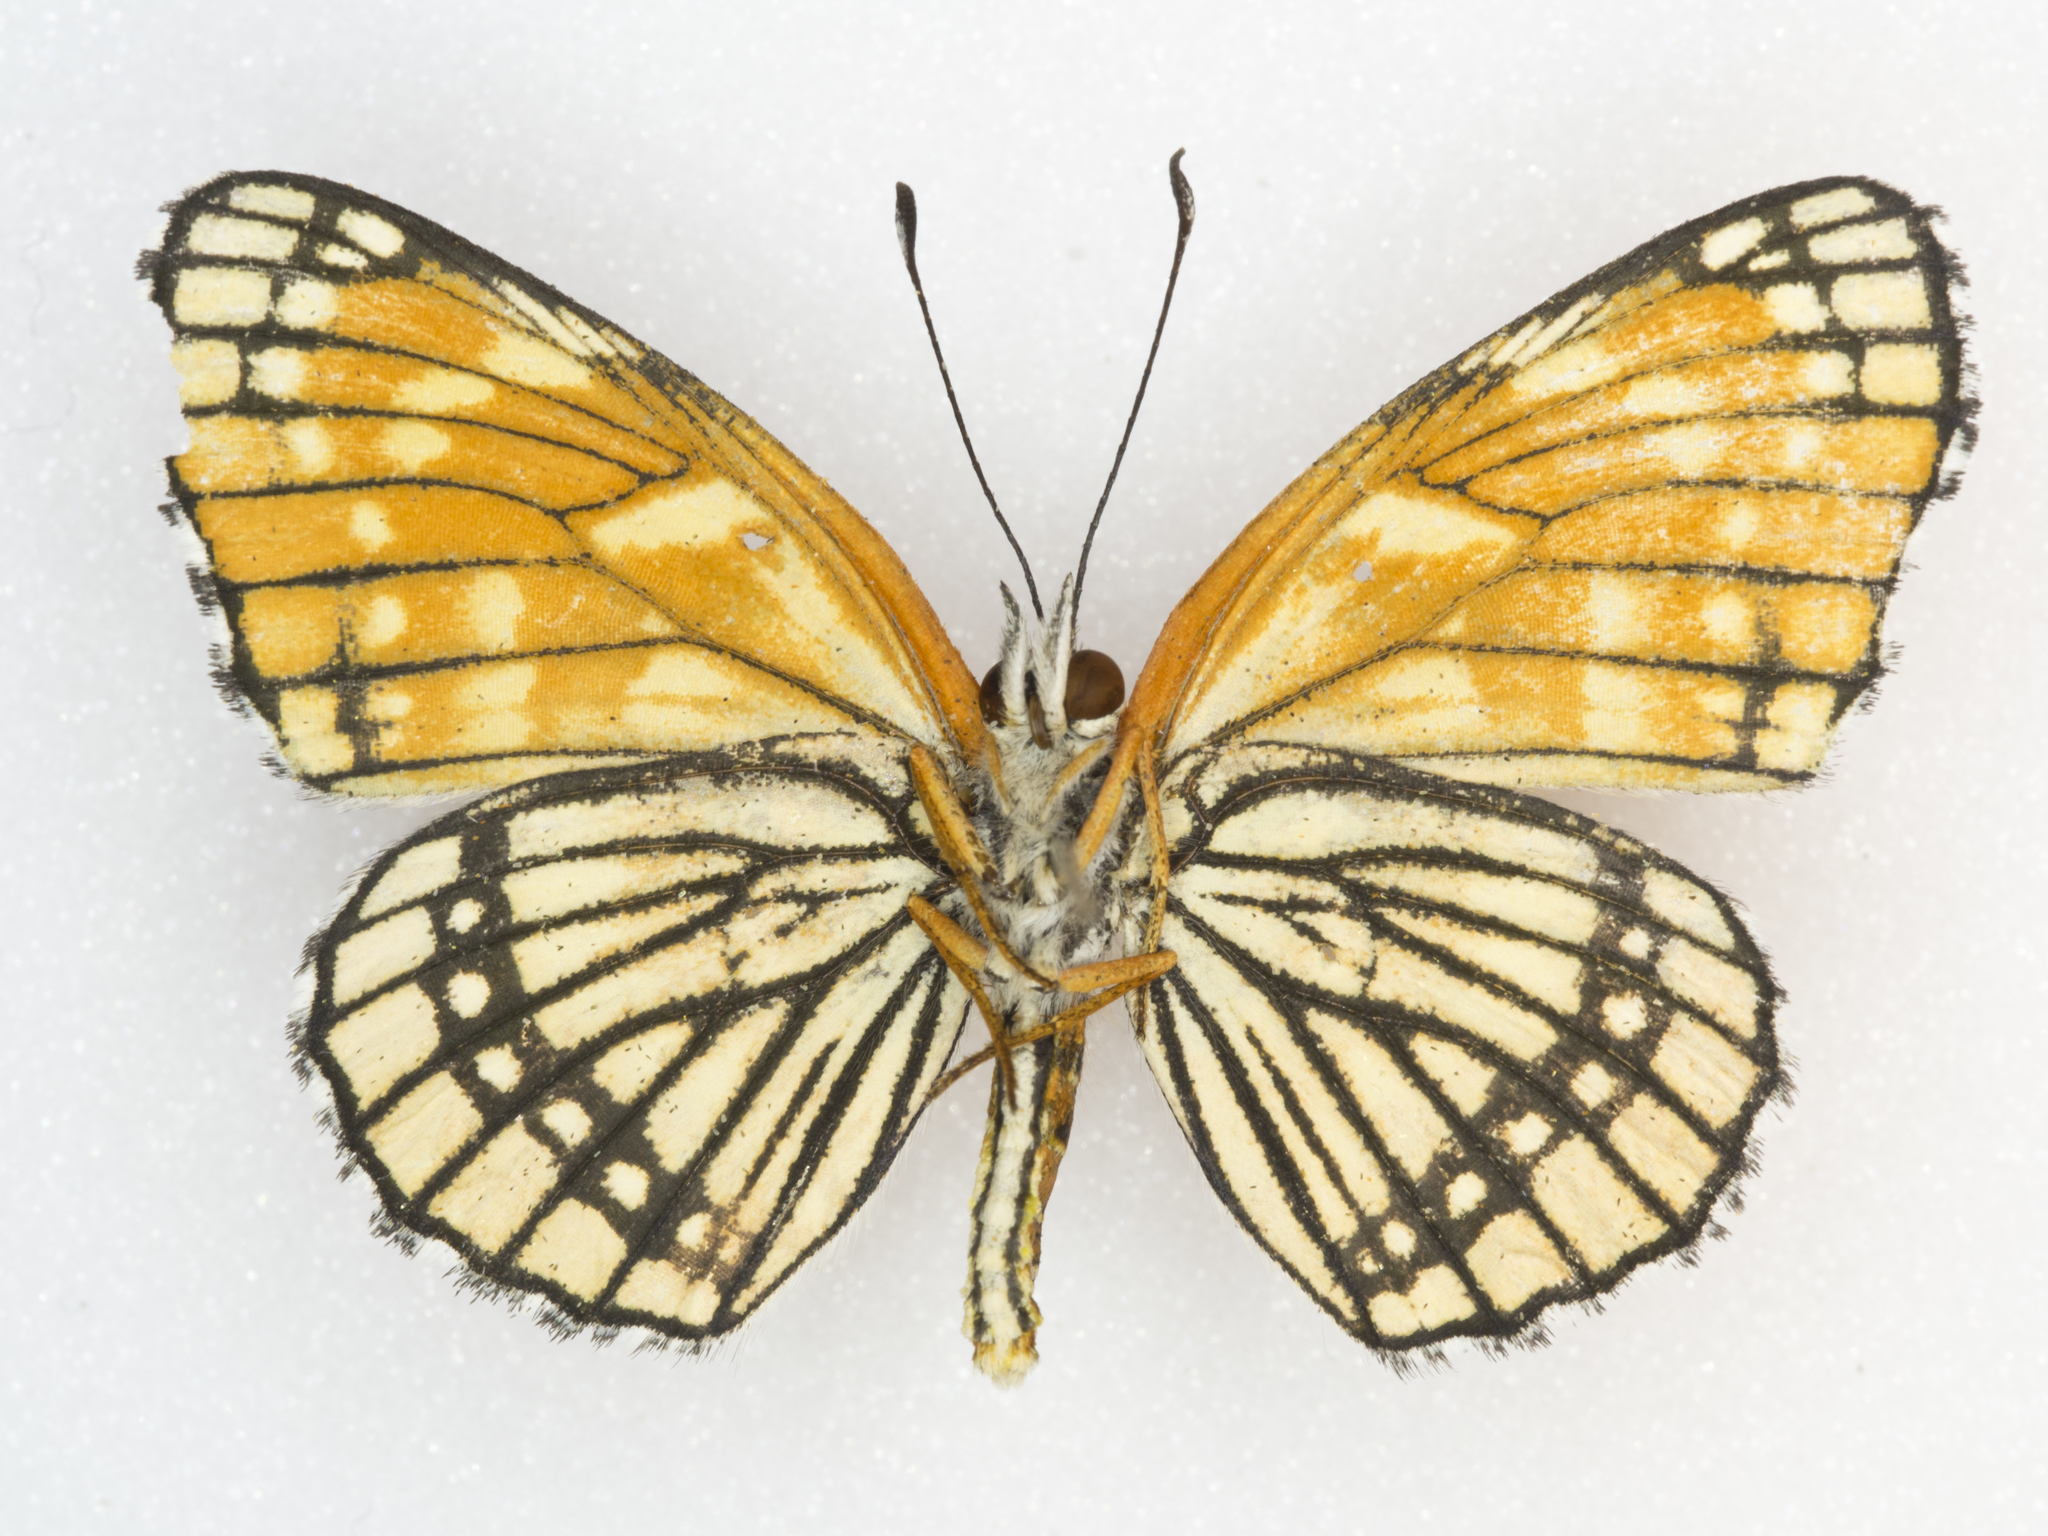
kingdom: Animalia
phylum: Arthropoda
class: Insecta
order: Lepidoptera
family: Nymphalidae
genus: Chlosyne
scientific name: Chlosyne
